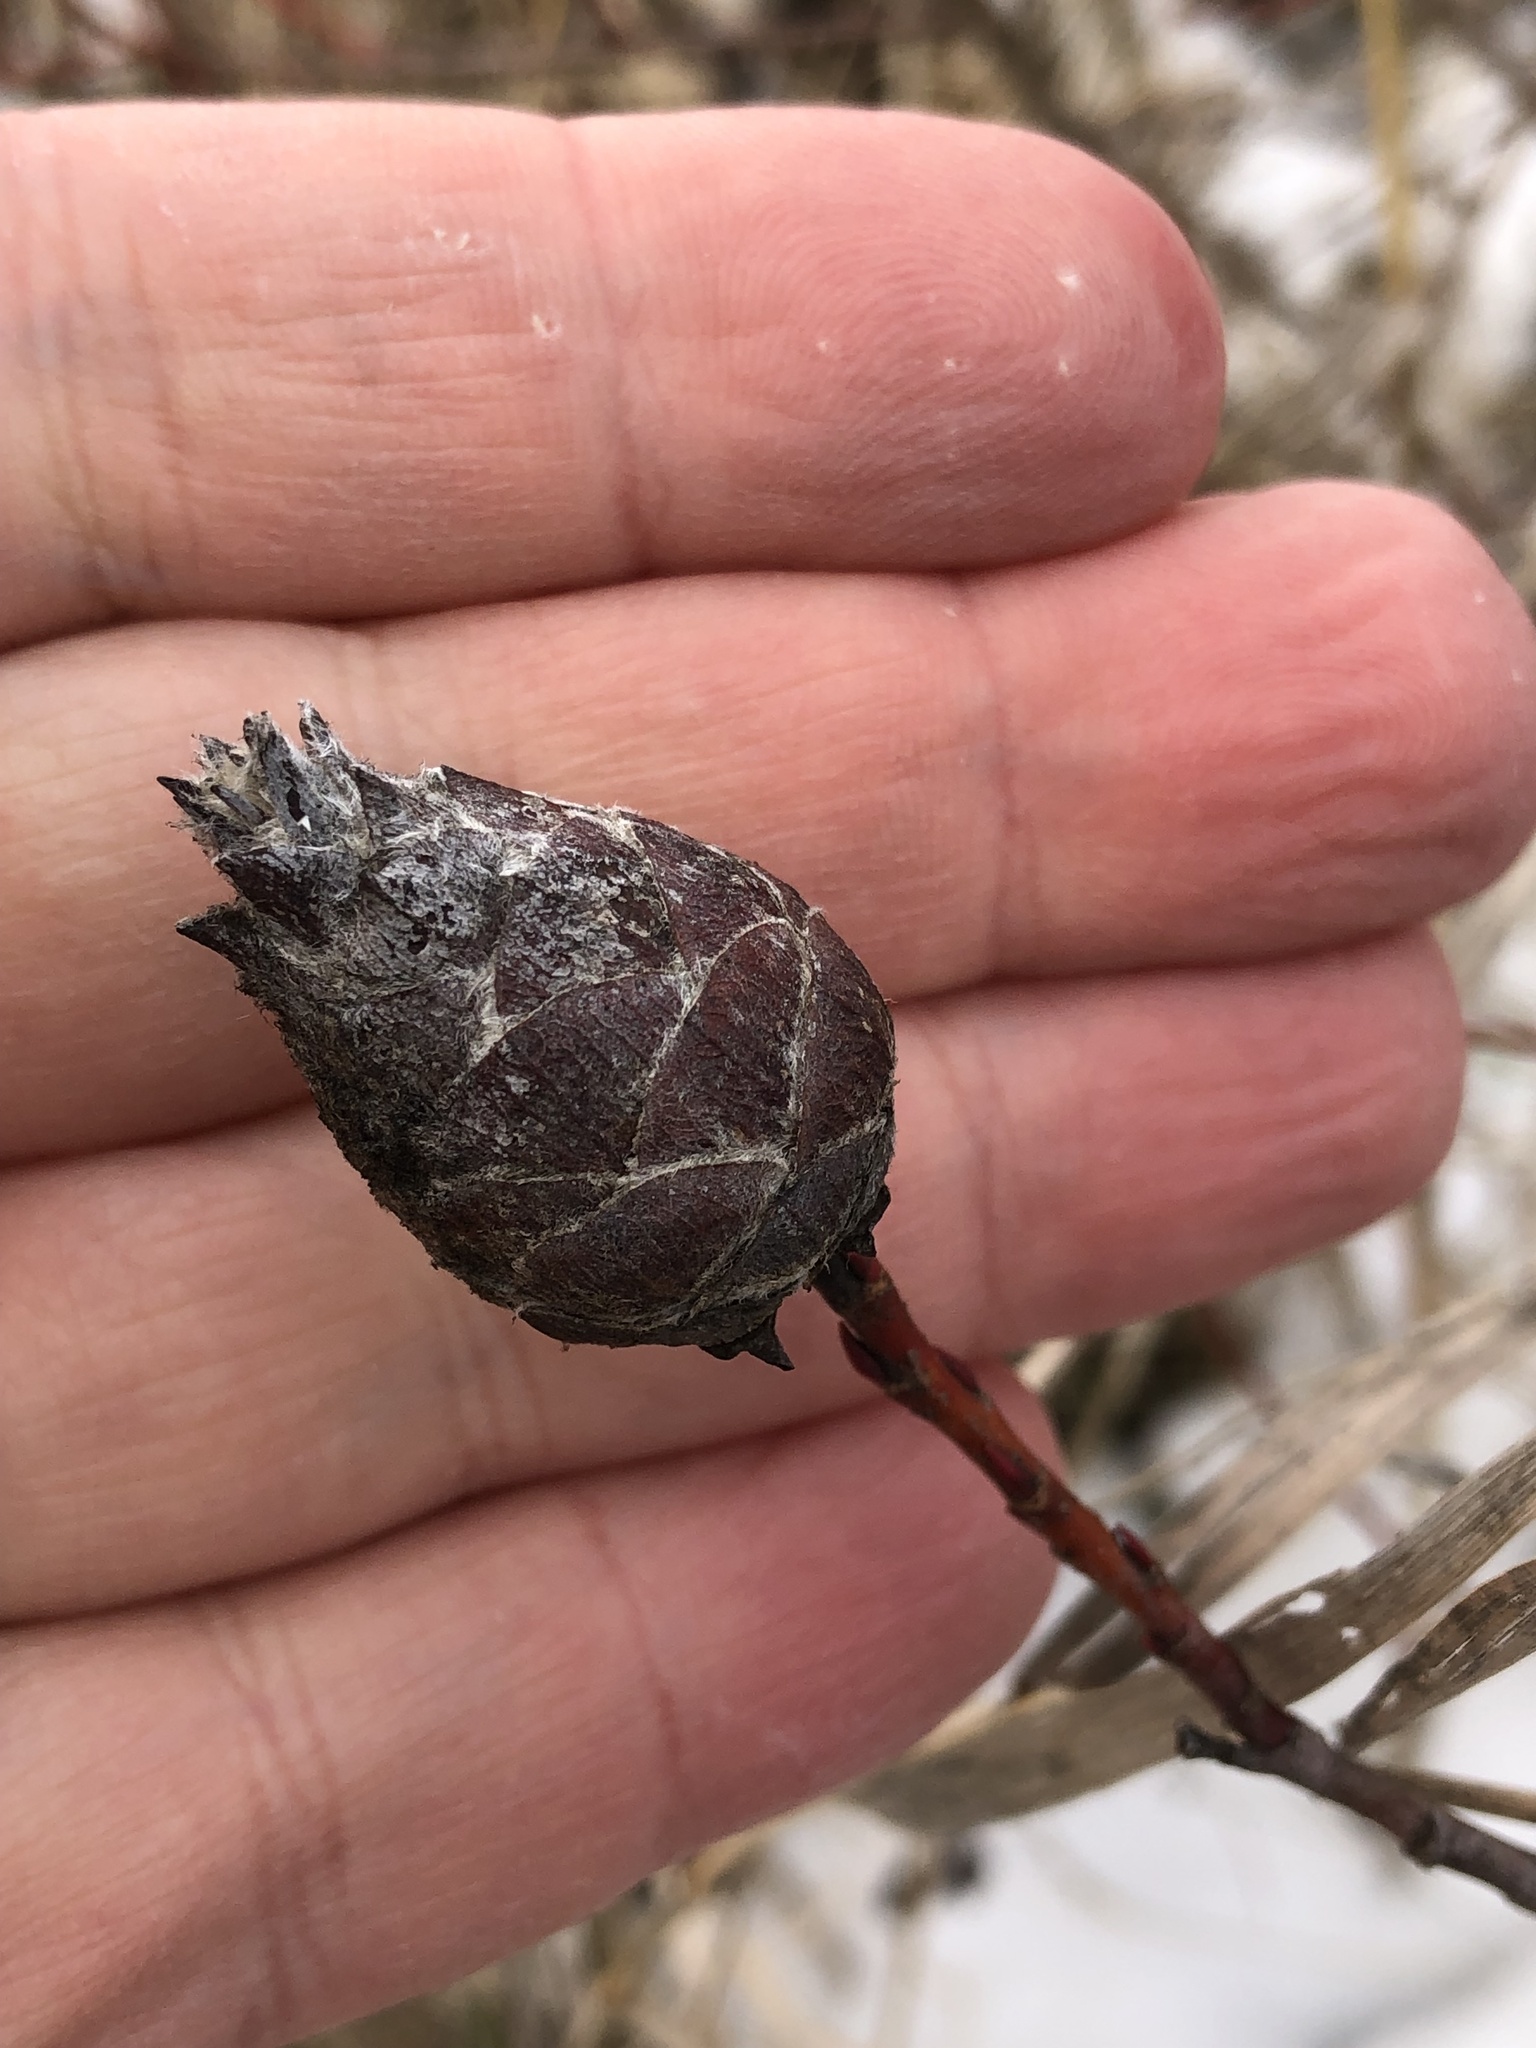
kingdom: Animalia
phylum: Arthropoda
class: Insecta
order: Diptera
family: Cecidomyiidae
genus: Rabdophaga
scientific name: Rabdophaga strobiloides
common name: Willow pinecone gall midge
